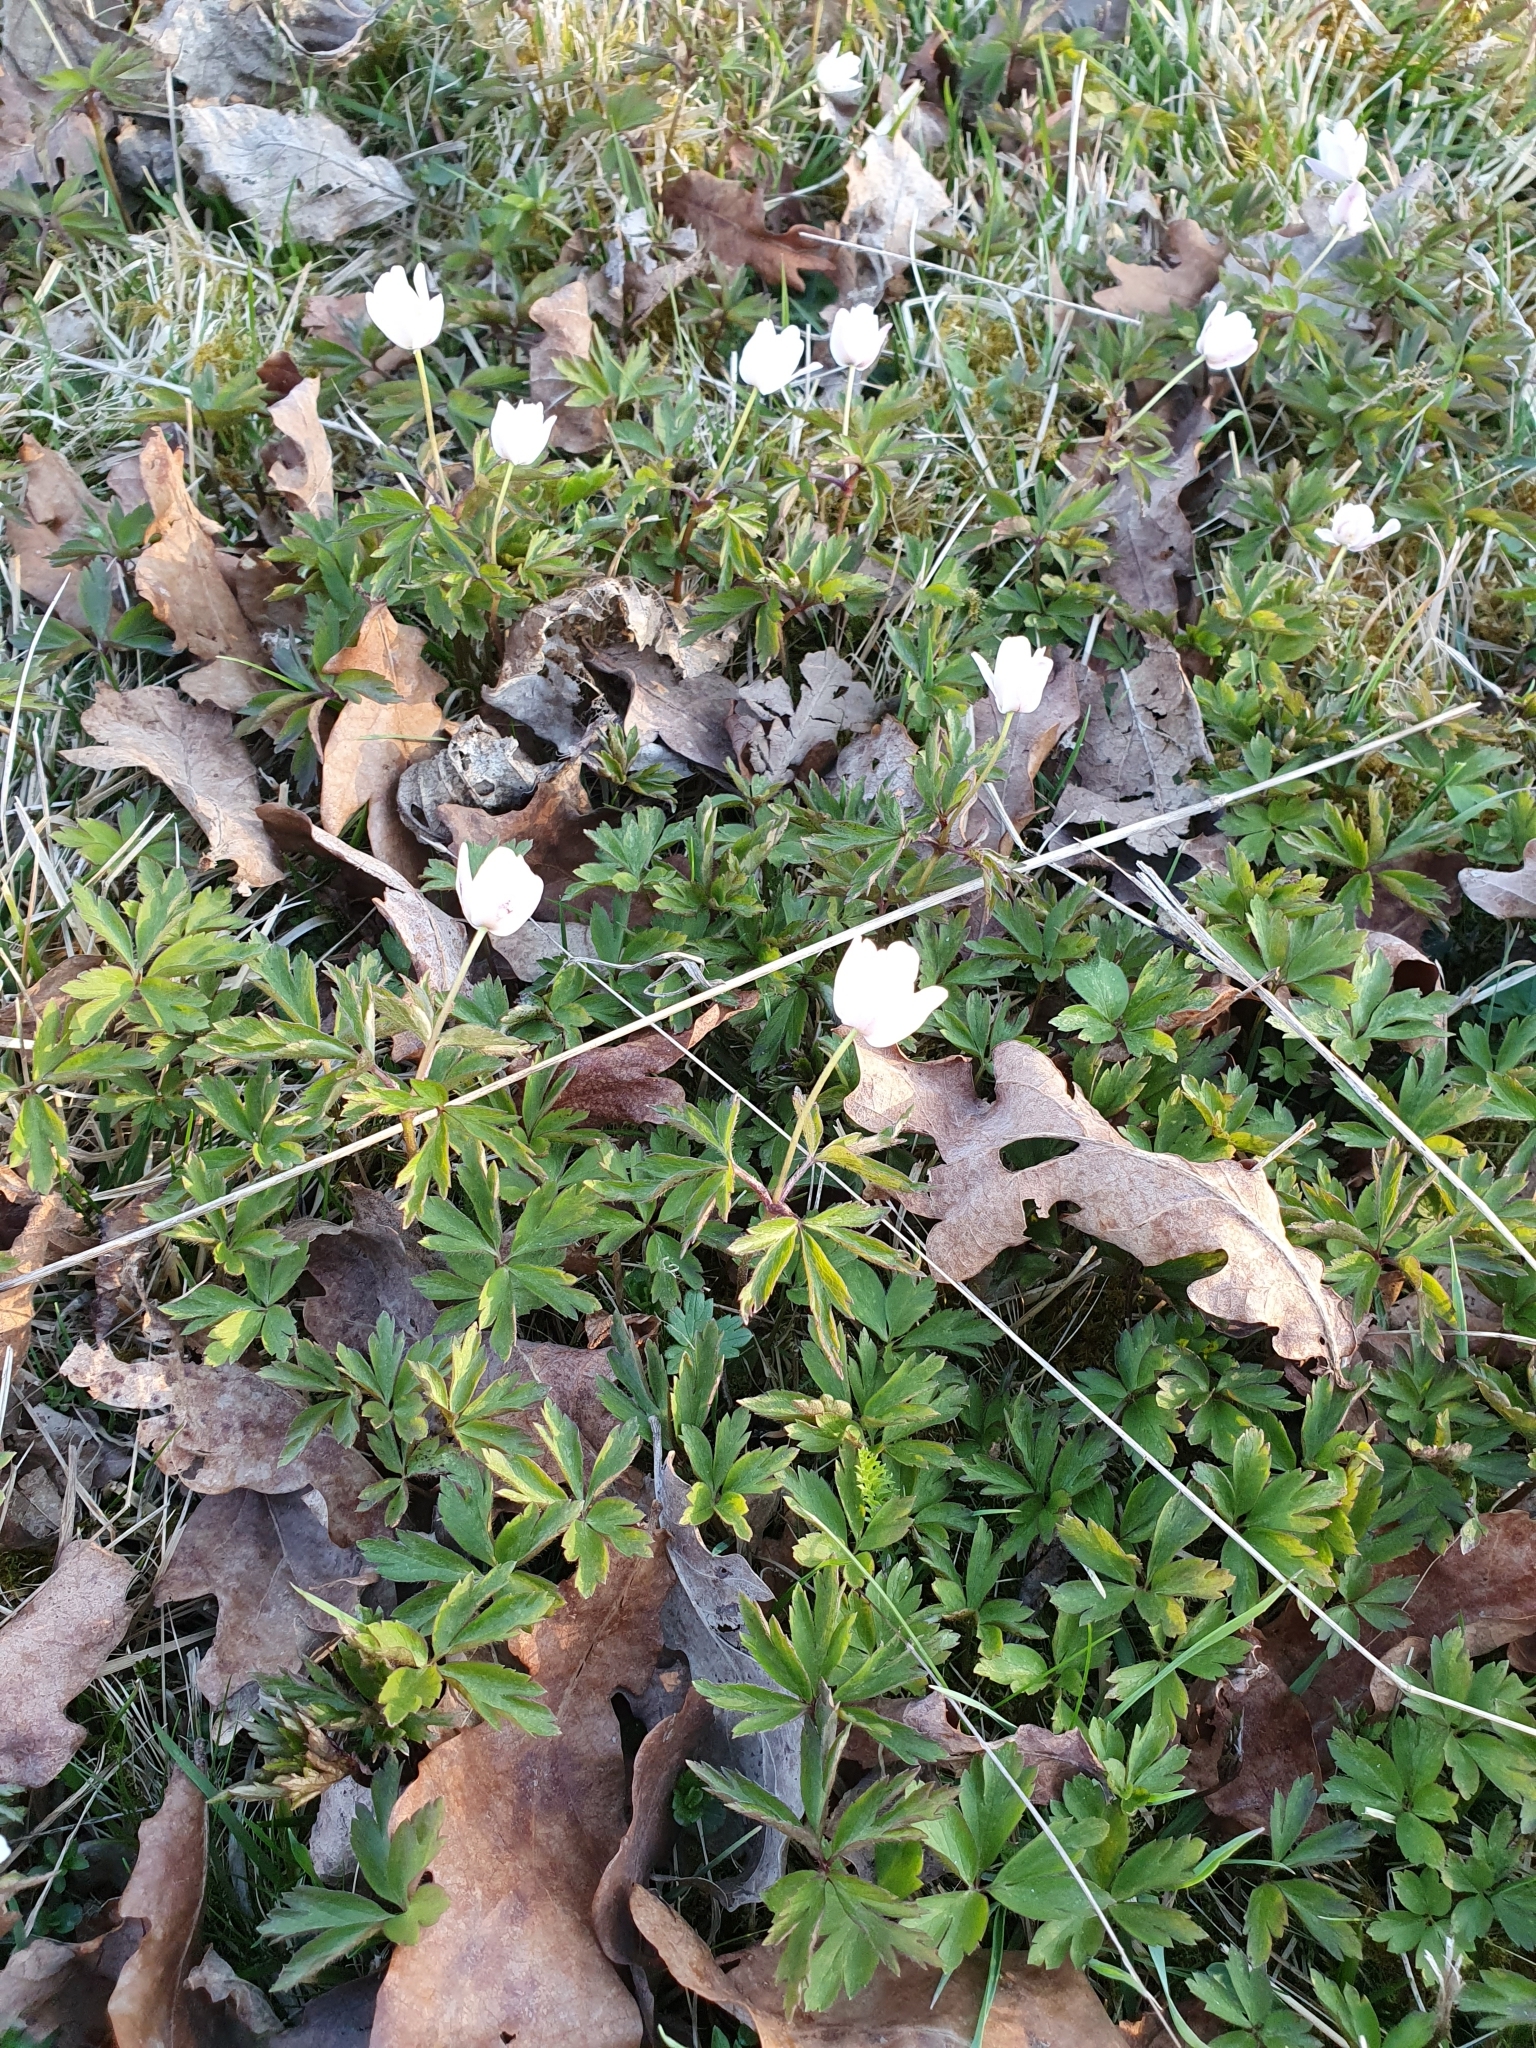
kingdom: Plantae
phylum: Tracheophyta
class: Magnoliopsida
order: Ranunculales
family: Ranunculaceae
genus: Anemone
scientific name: Anemone nemorosa
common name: Wood anemone
